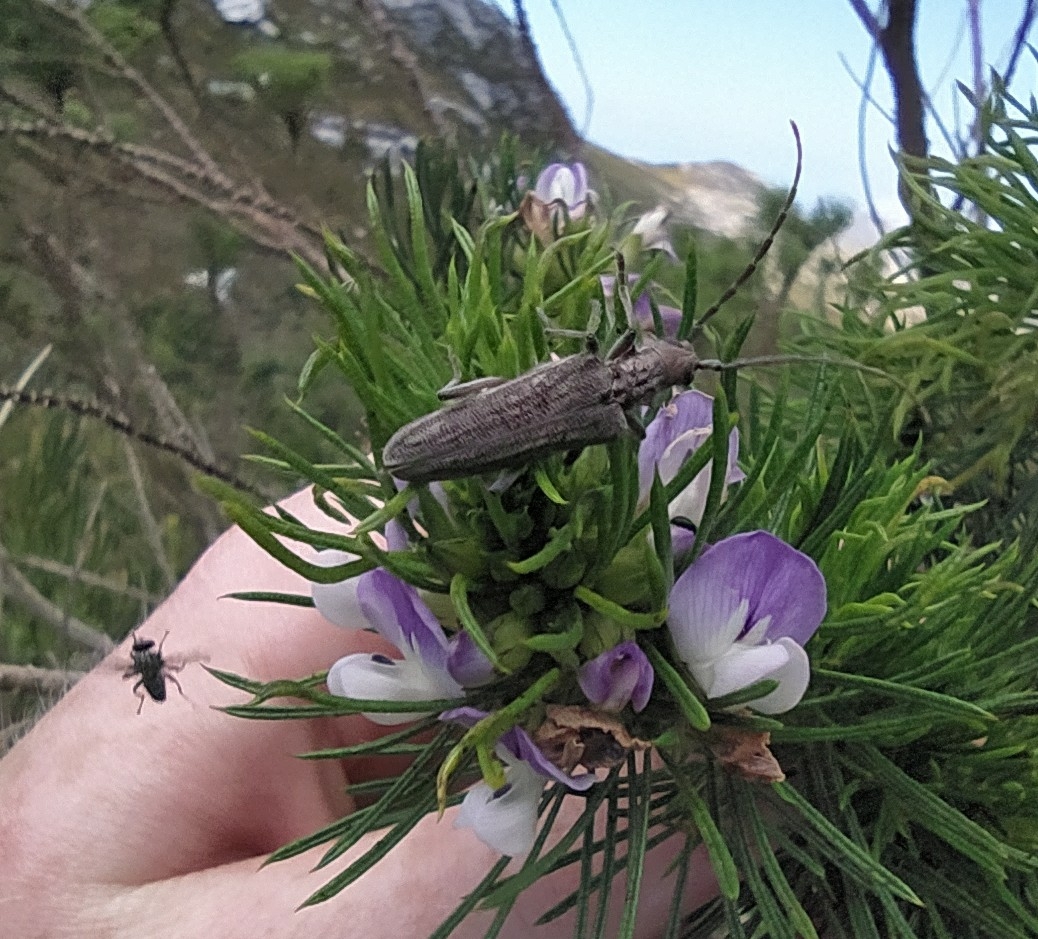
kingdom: Animalia
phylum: Arthropoda
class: Insecta
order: Coleoptera
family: Cerambycidae
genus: Aristogitus
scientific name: Aristogitus cylindricus
